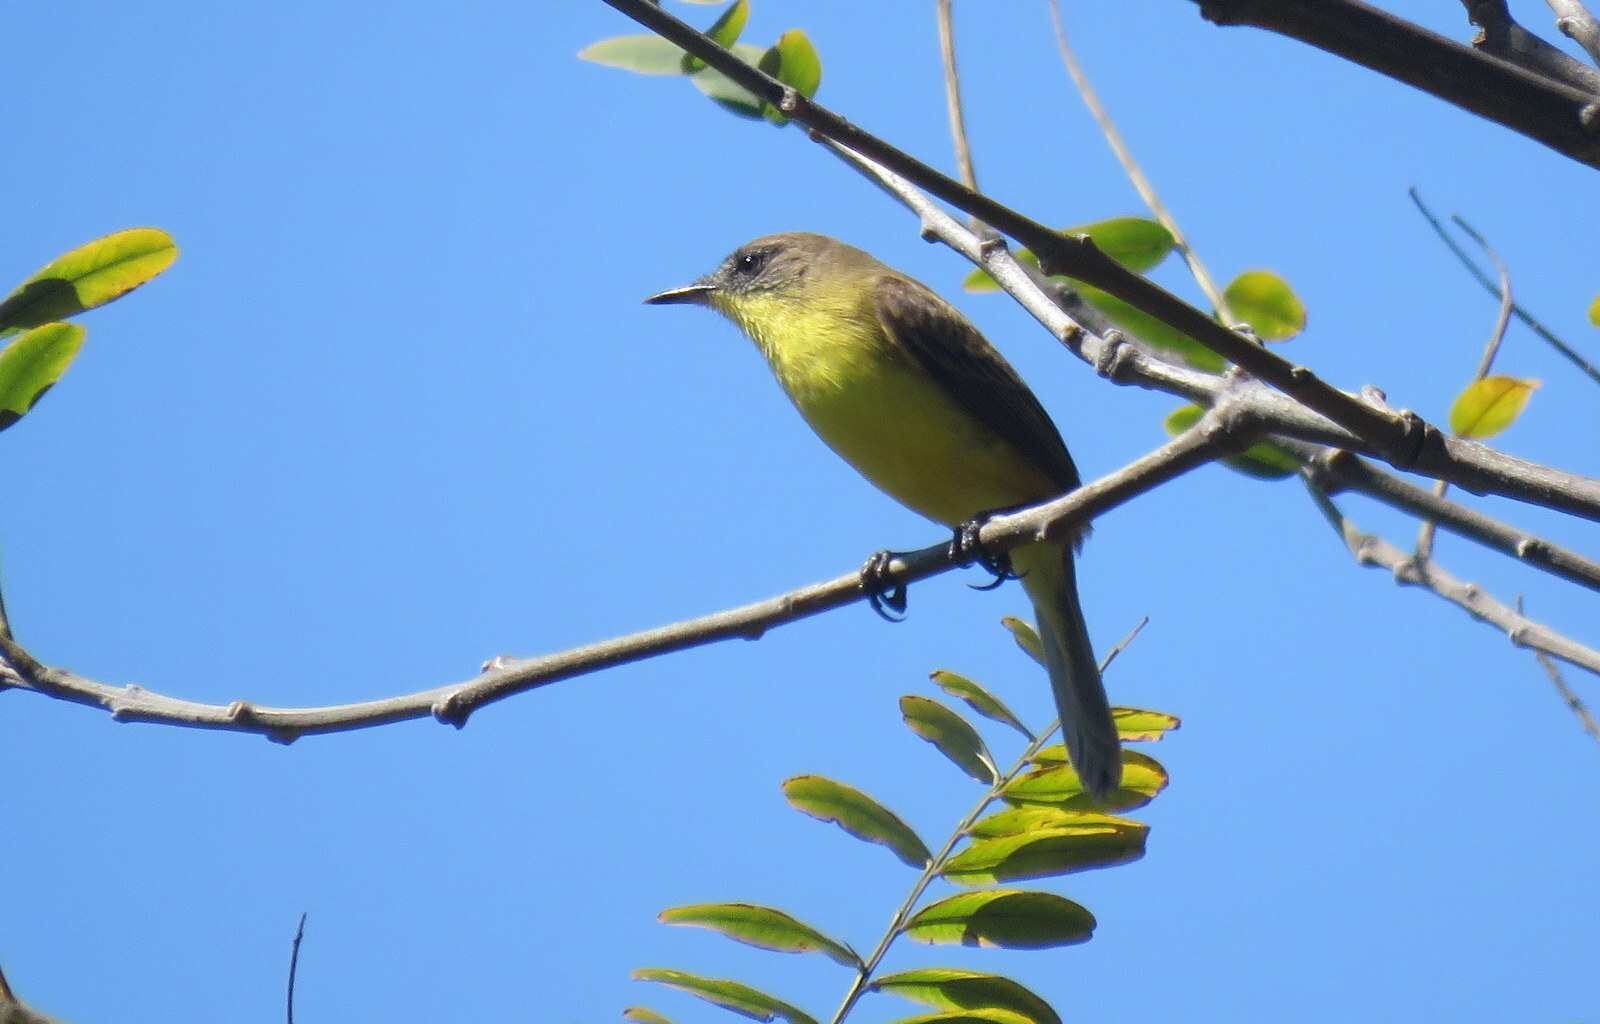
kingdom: Animalia
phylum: Chordata
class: Aves
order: Passeriformes
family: Tyrannidae
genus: Pseudocolopteryx
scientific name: Pseudocolopteryx citreola
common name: Ticking doradito
